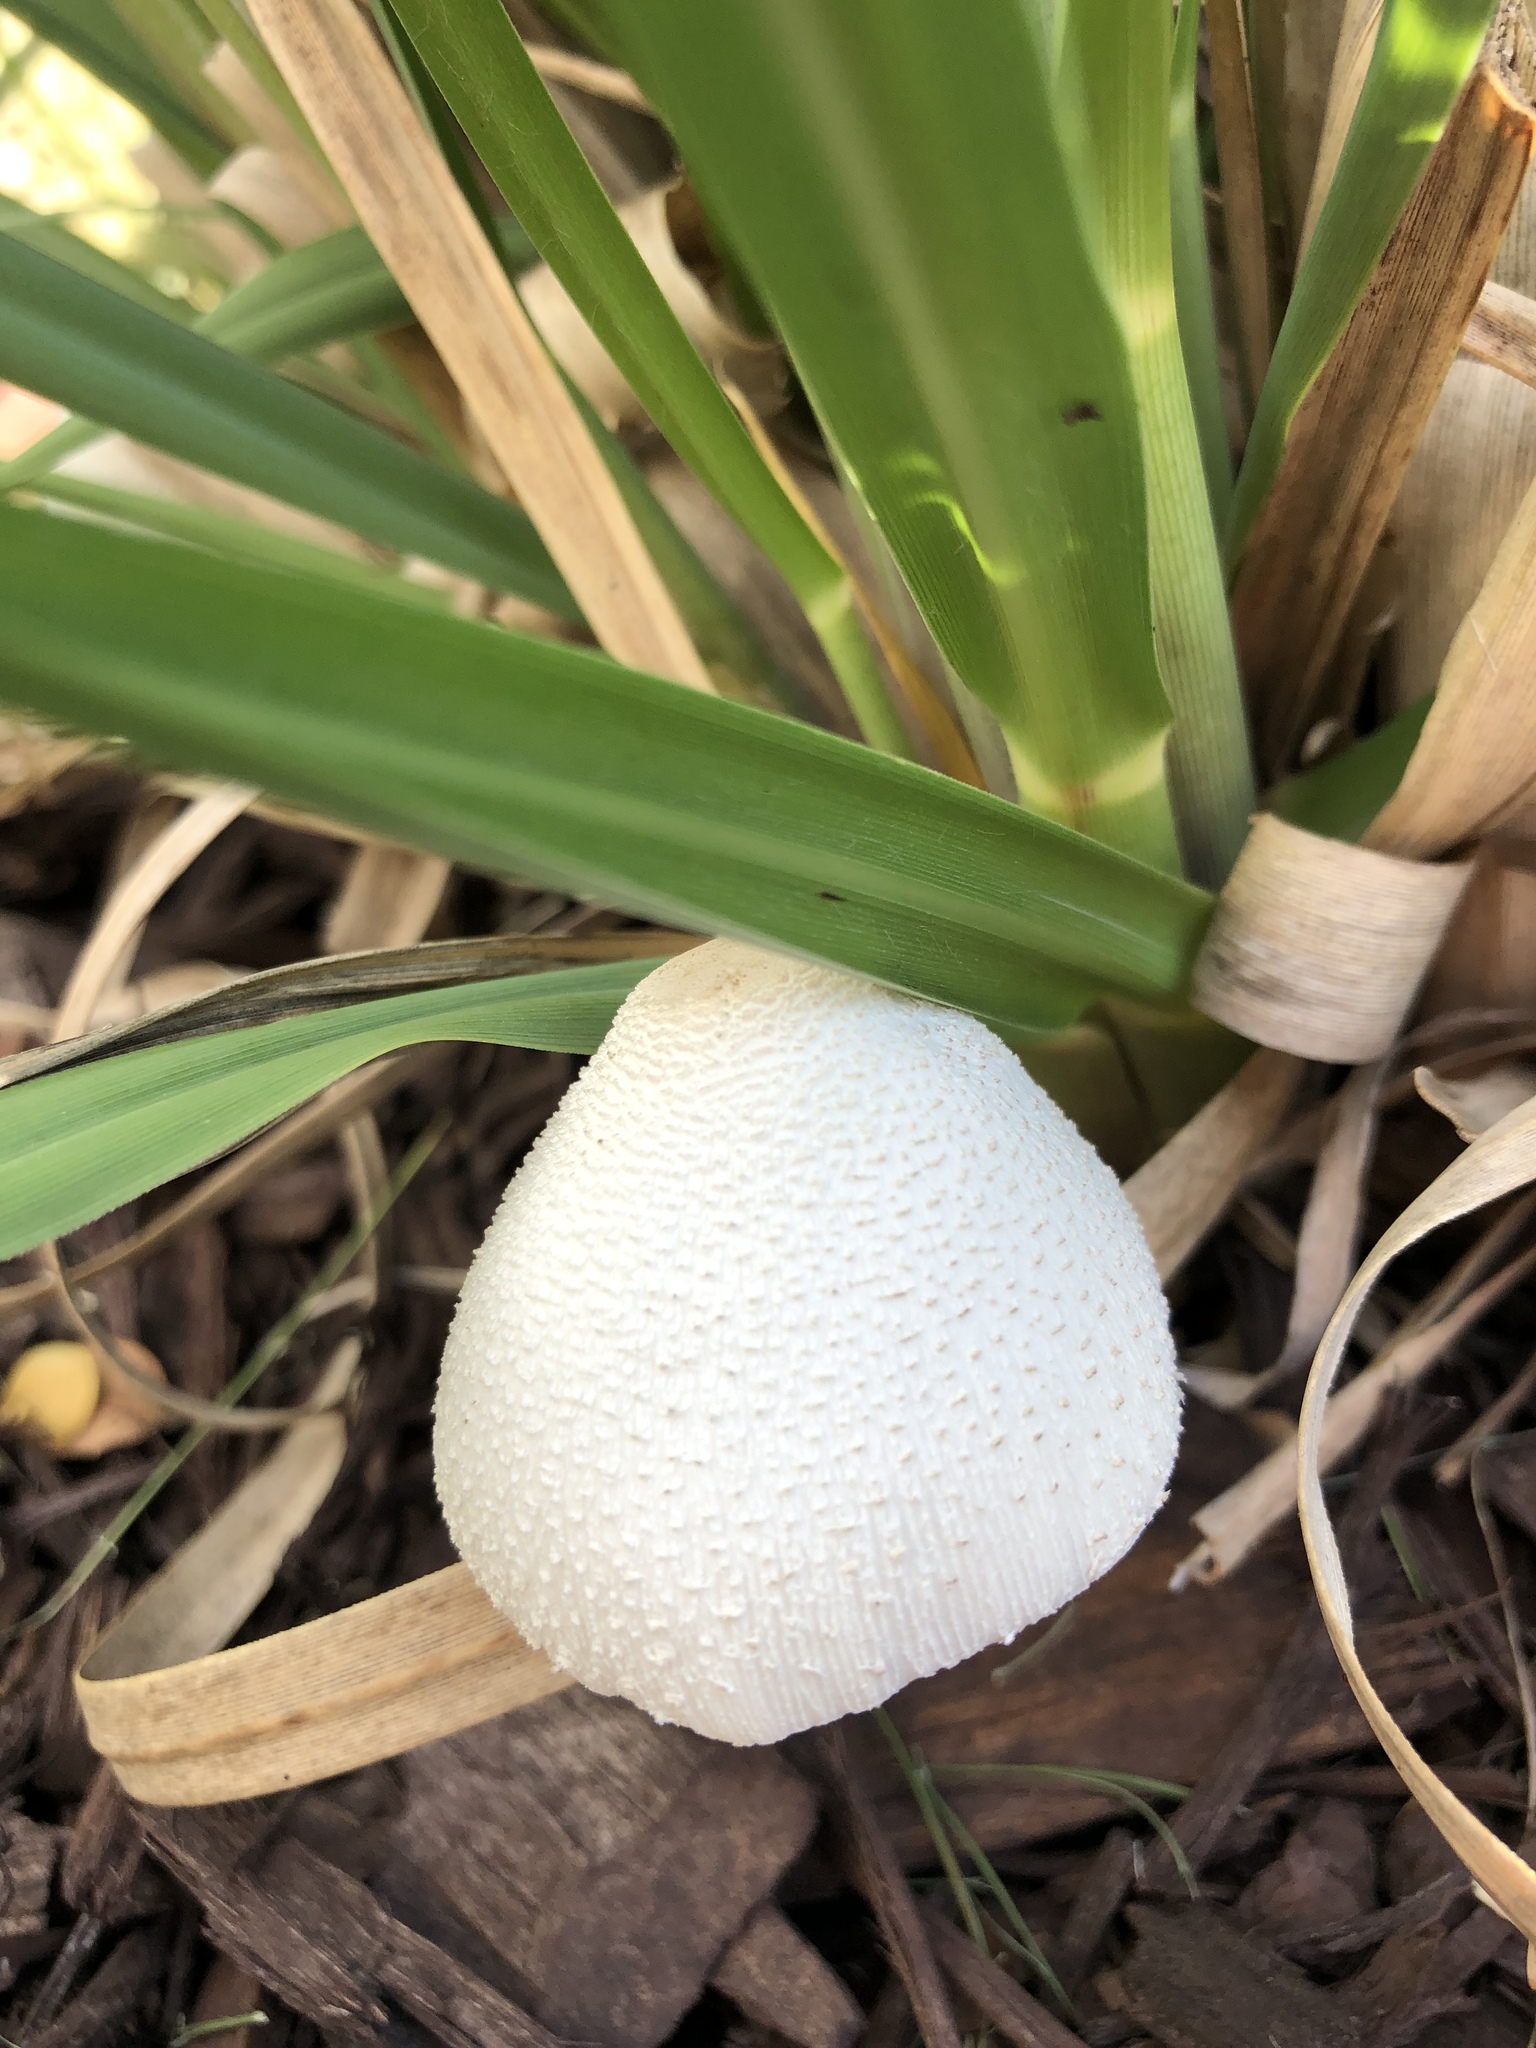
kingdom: Fungi
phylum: Basidiomycota
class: Agaricomycetes
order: Agaricales
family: Agaricaceae
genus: Leucocoprinus
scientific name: Leucocoprinus cepistipes
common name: Onion-stalk parasol
